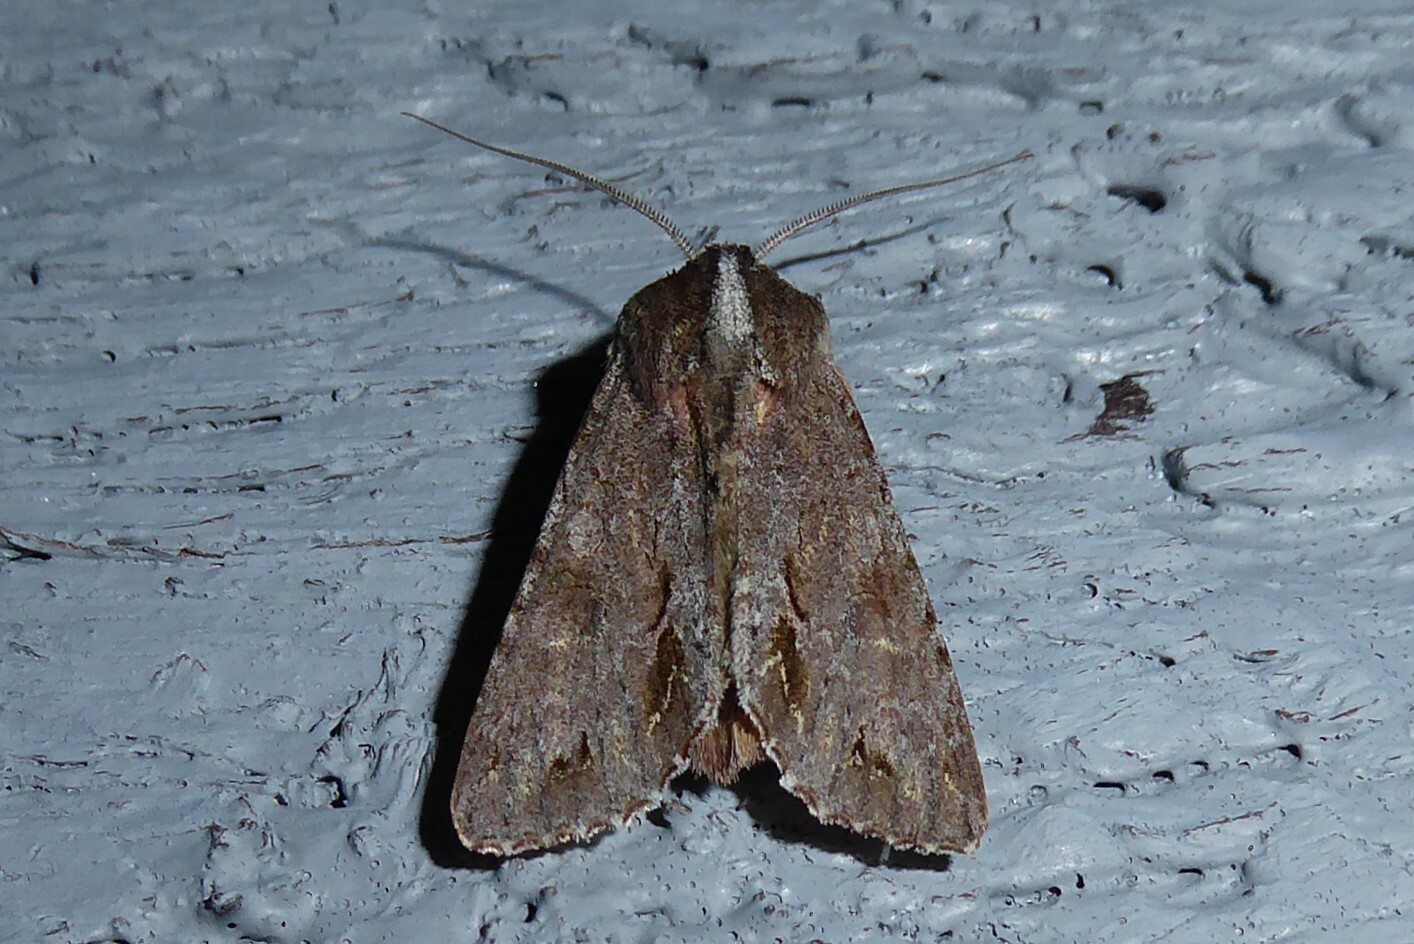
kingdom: Animalia
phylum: Arthropoda
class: Insecta
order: Lepidoptera
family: Noctuidae
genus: Ichneutica
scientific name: Ichneutica
